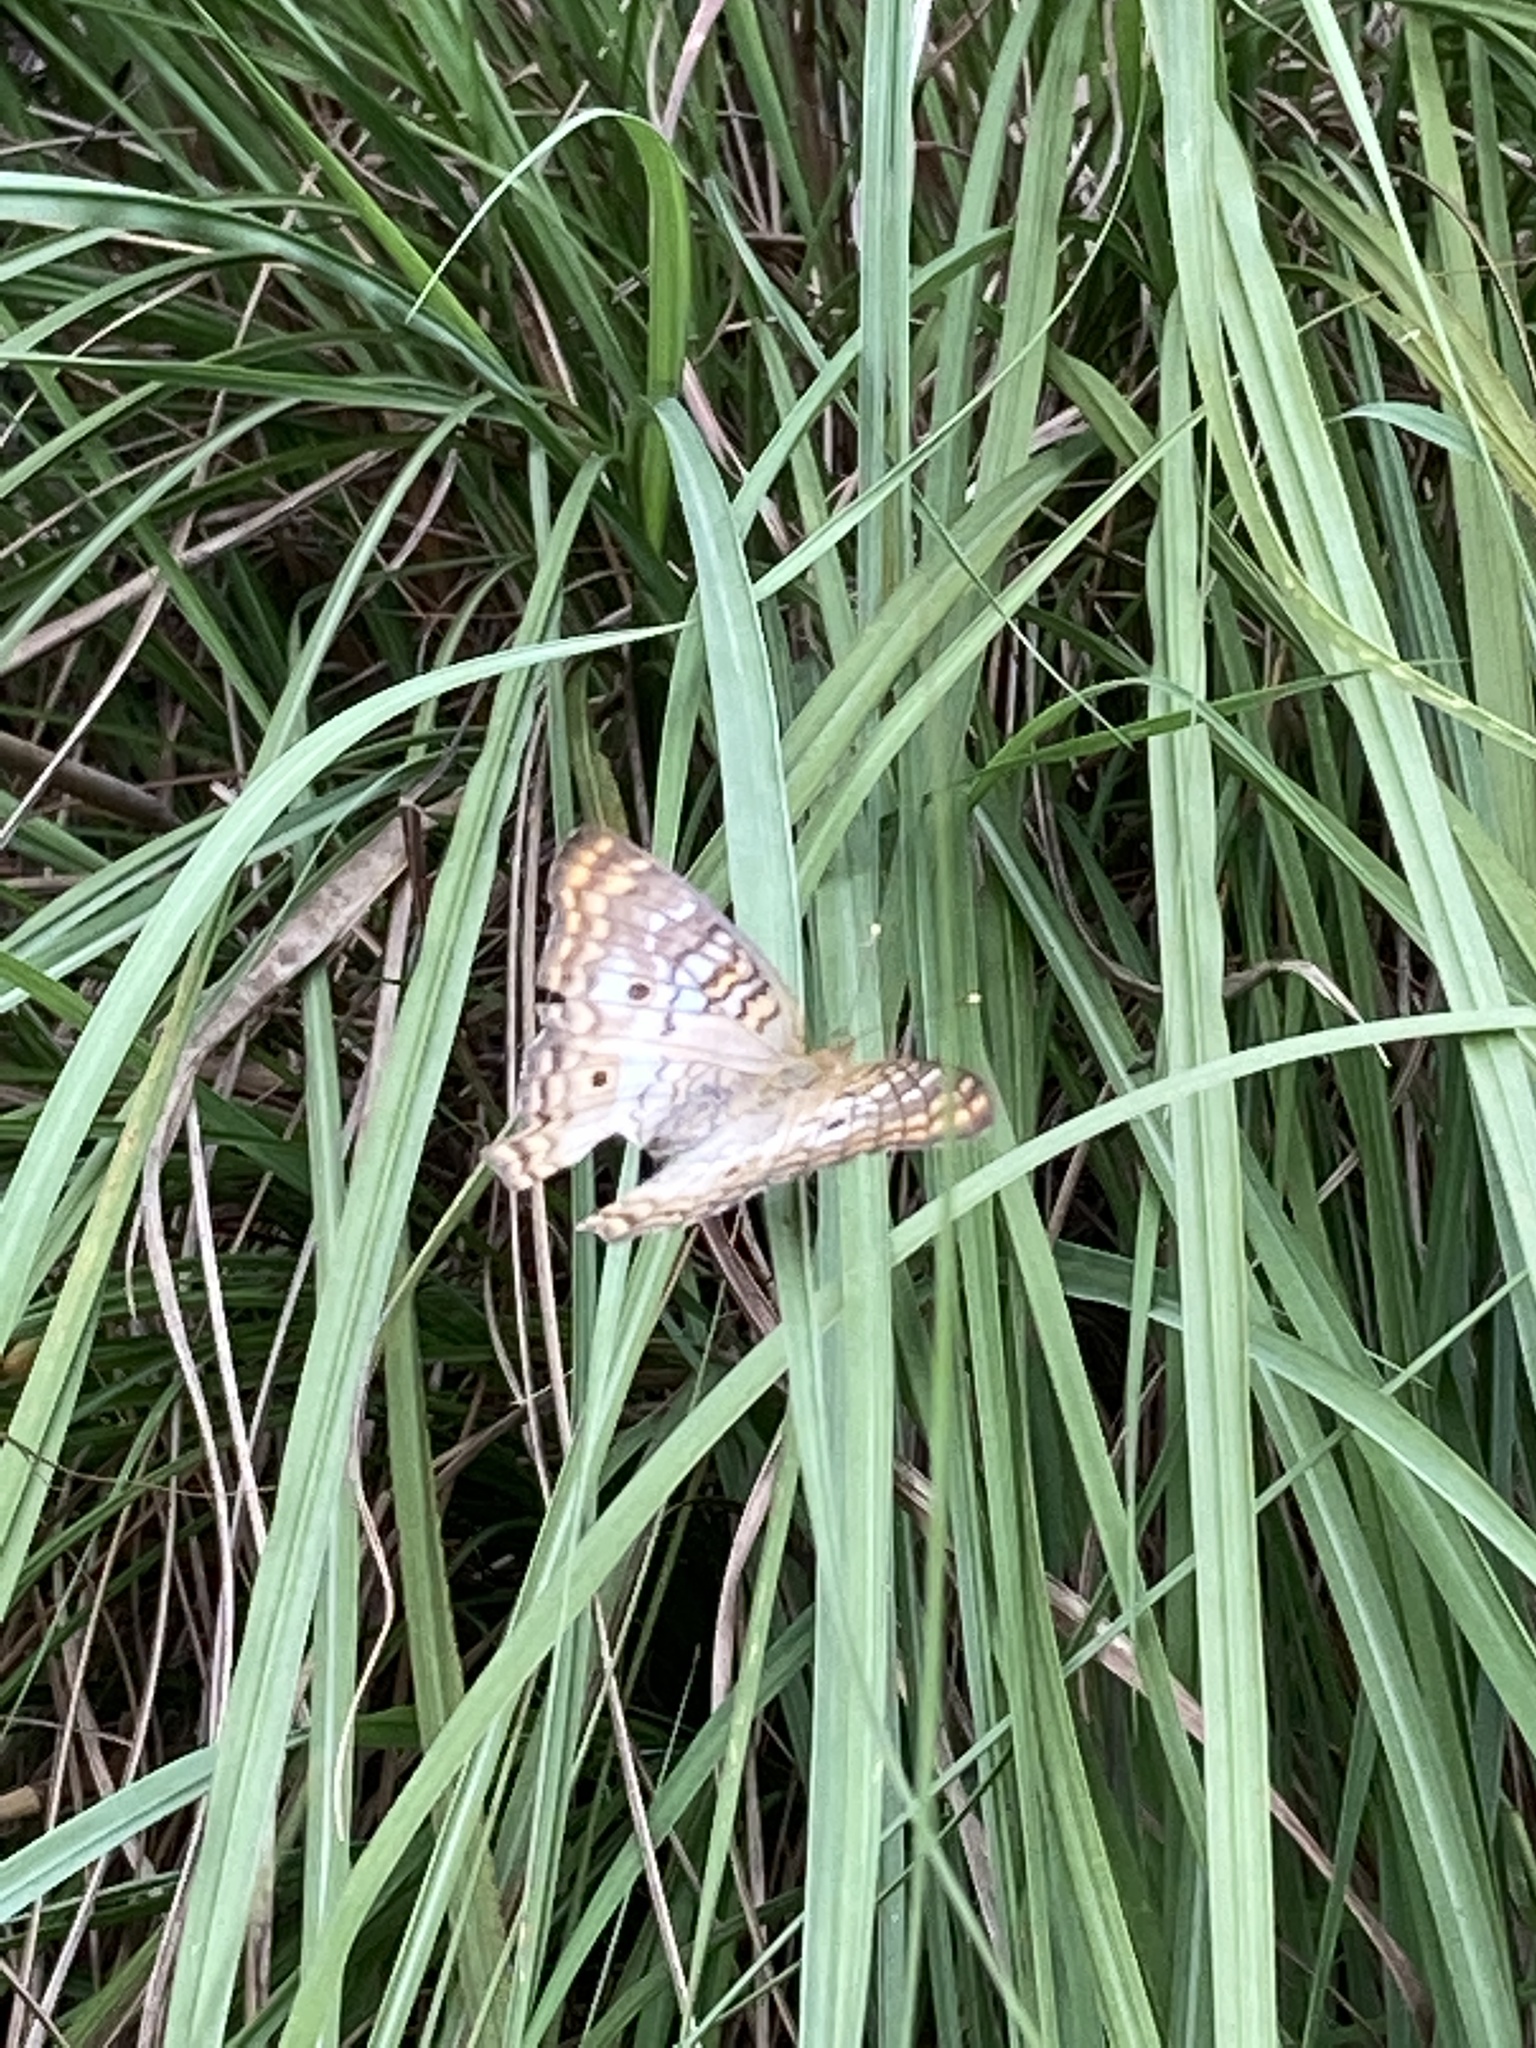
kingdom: Animalia
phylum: Arthropoda
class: Insecta
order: Lepidoptera
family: Nymphalidae
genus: Anartia
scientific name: Anartia jatrophae
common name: White peacock
